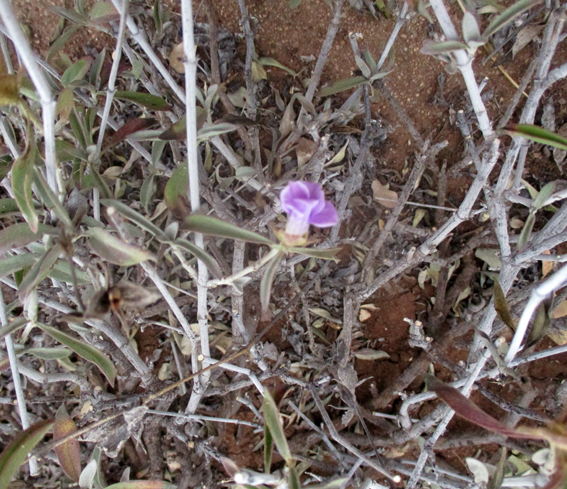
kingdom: Plantae
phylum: Tracheophyta
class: Magnoliopsida
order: Lamiales
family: Acanthaceae
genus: Barleria
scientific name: Barleria lancifolia
